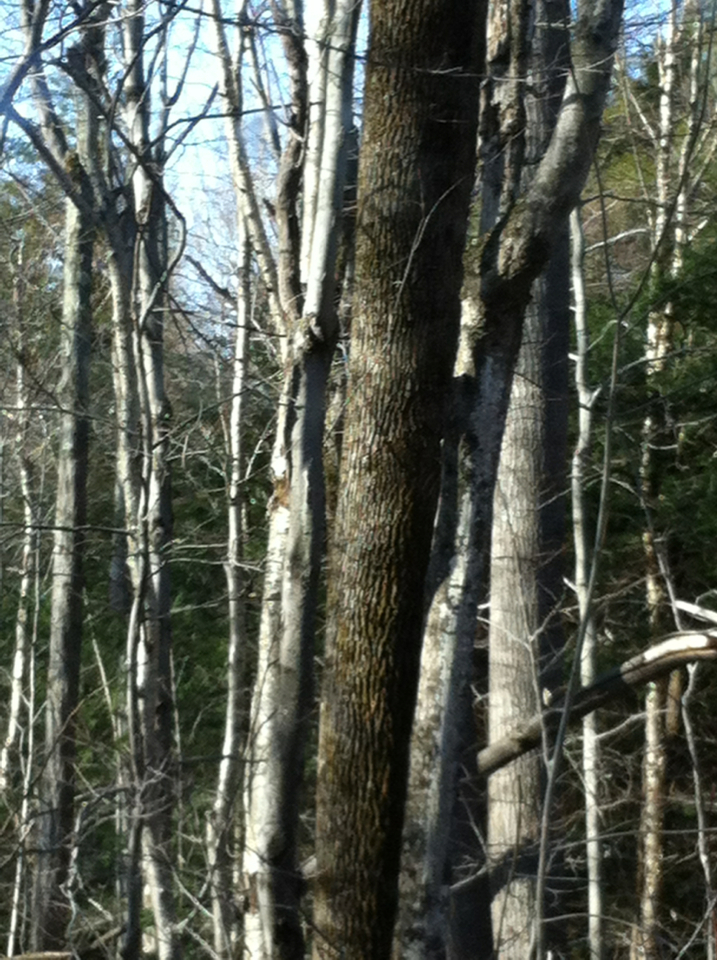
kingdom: Plantae
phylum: Tracheophyta
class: Magnoliopsida
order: Lamiales
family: Oleaceae
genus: Fraxinus
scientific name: Fraxinus americana
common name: White ash
